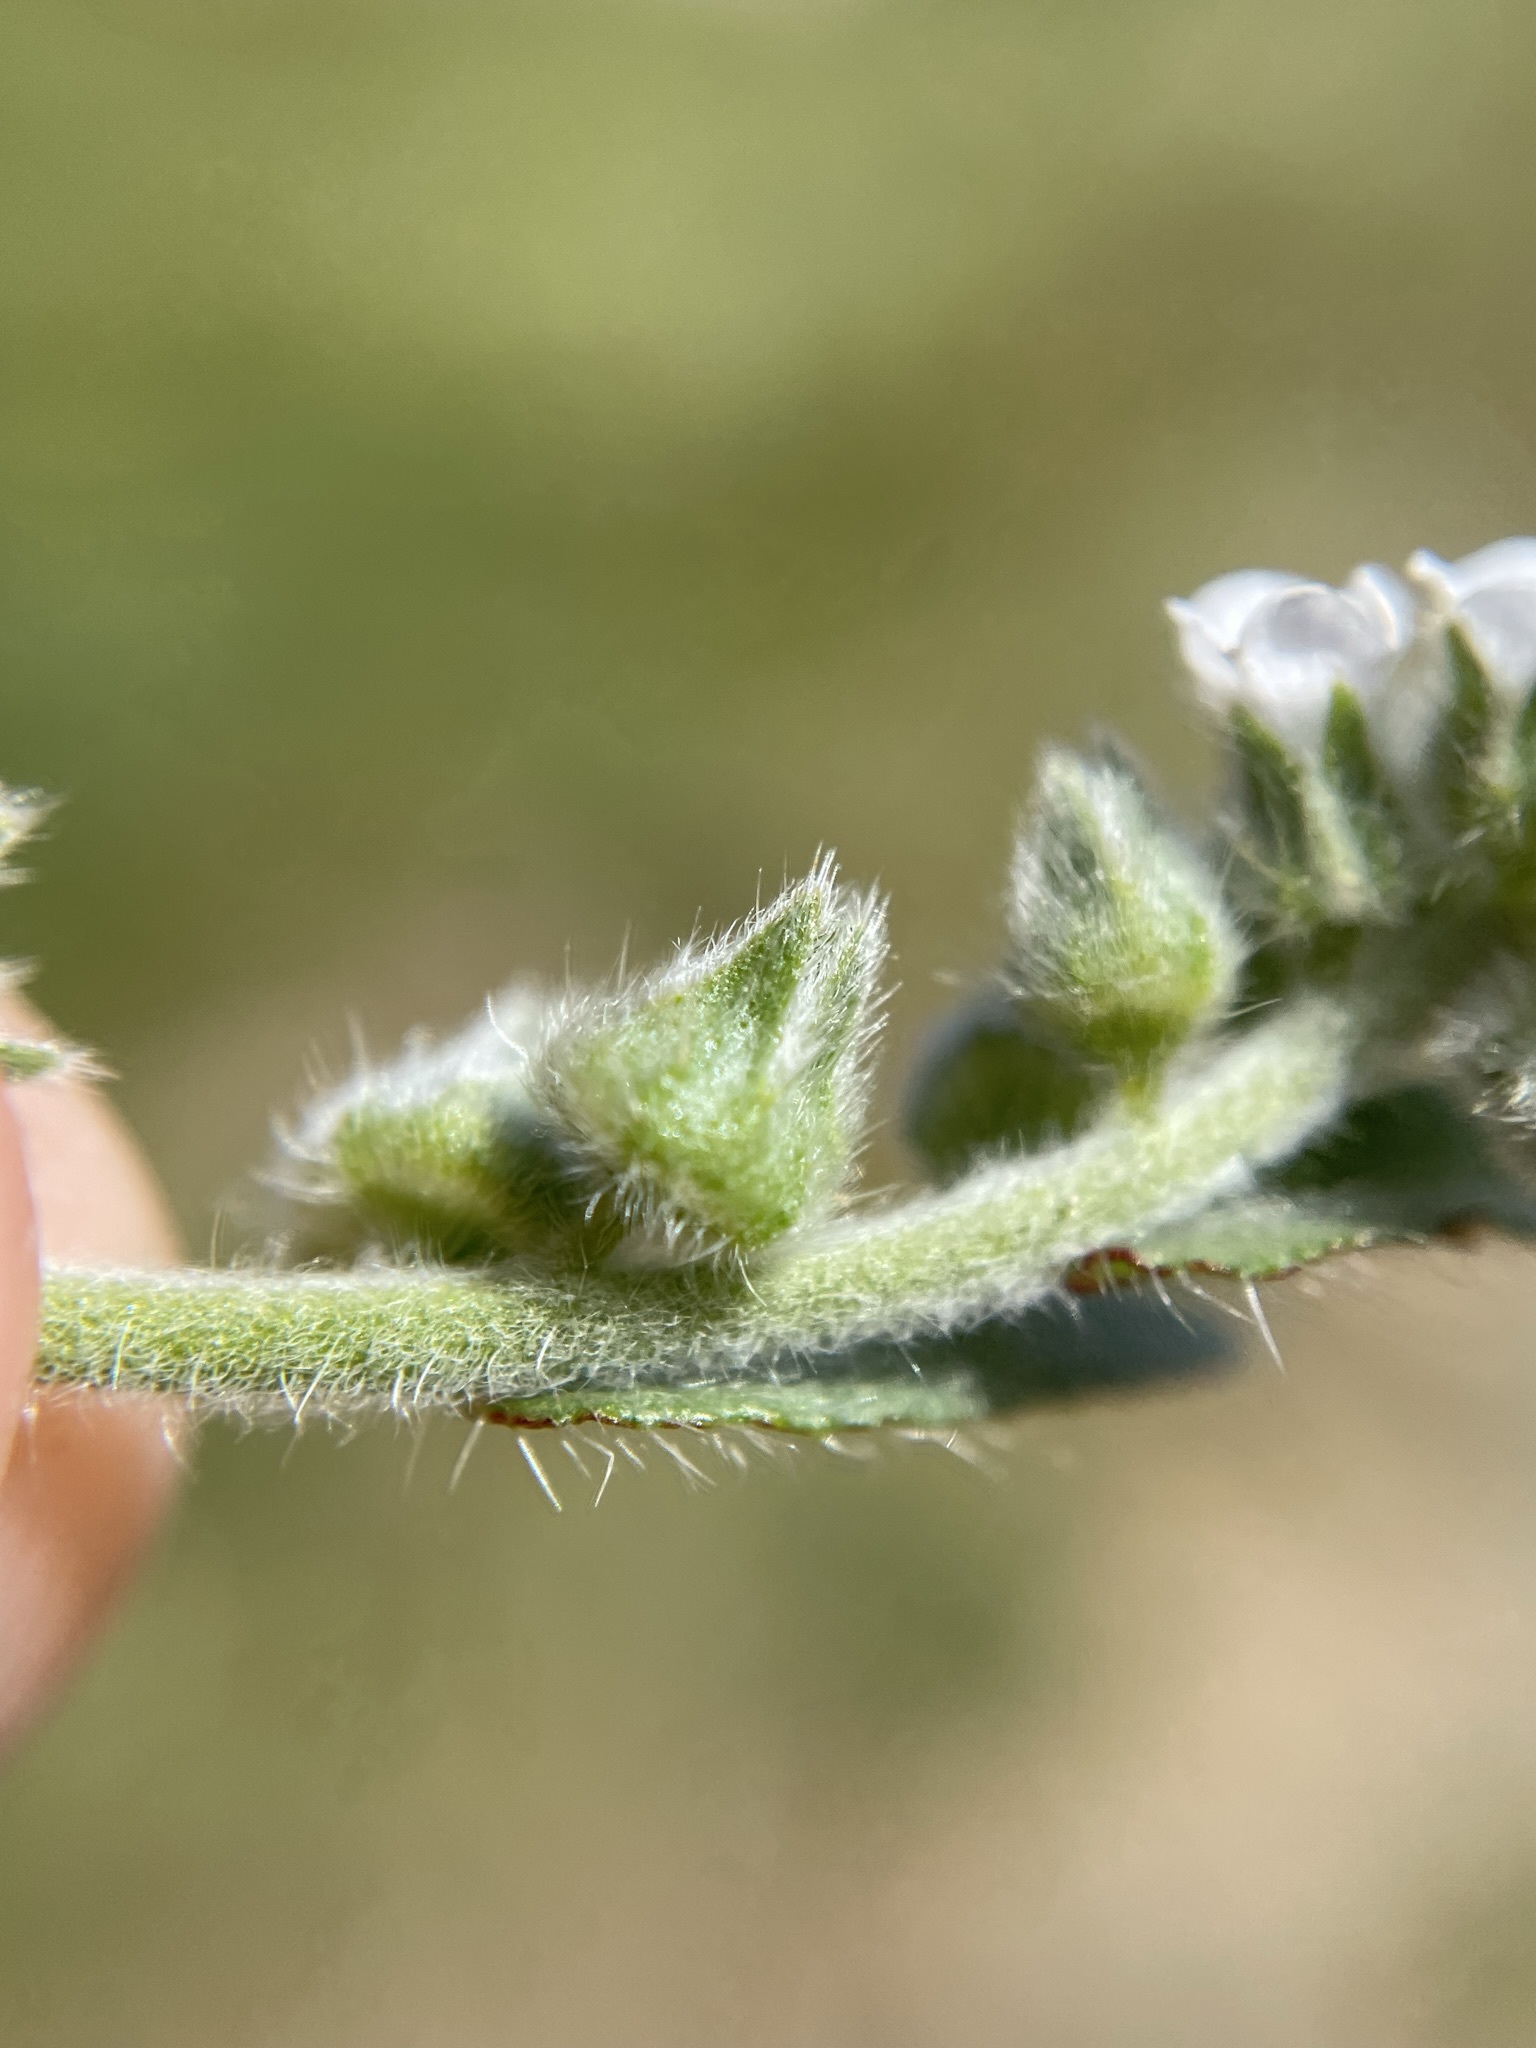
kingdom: Plantae
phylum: Tracheophyta
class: Magnoliopsida
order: Boraginales
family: Boraginaceae
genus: Plagiobothrys
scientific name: Plagiobothrys canescens
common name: Valley popcorn-flower
